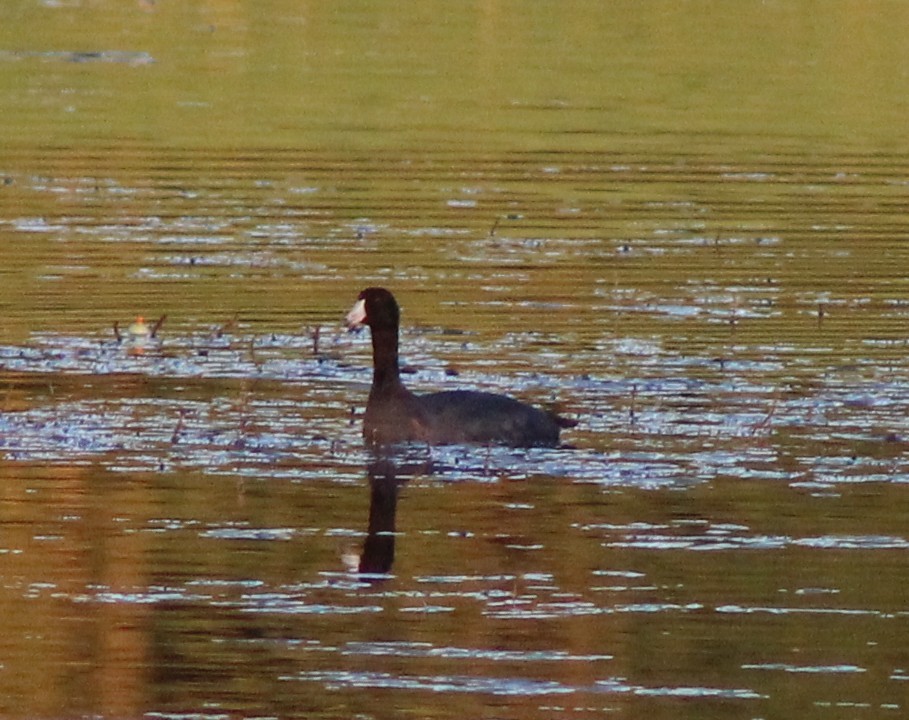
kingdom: Animalia
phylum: Chordata
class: Aves
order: Gruiformes
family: Rallidae
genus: Fulica
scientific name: Fulica americana
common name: American coot
